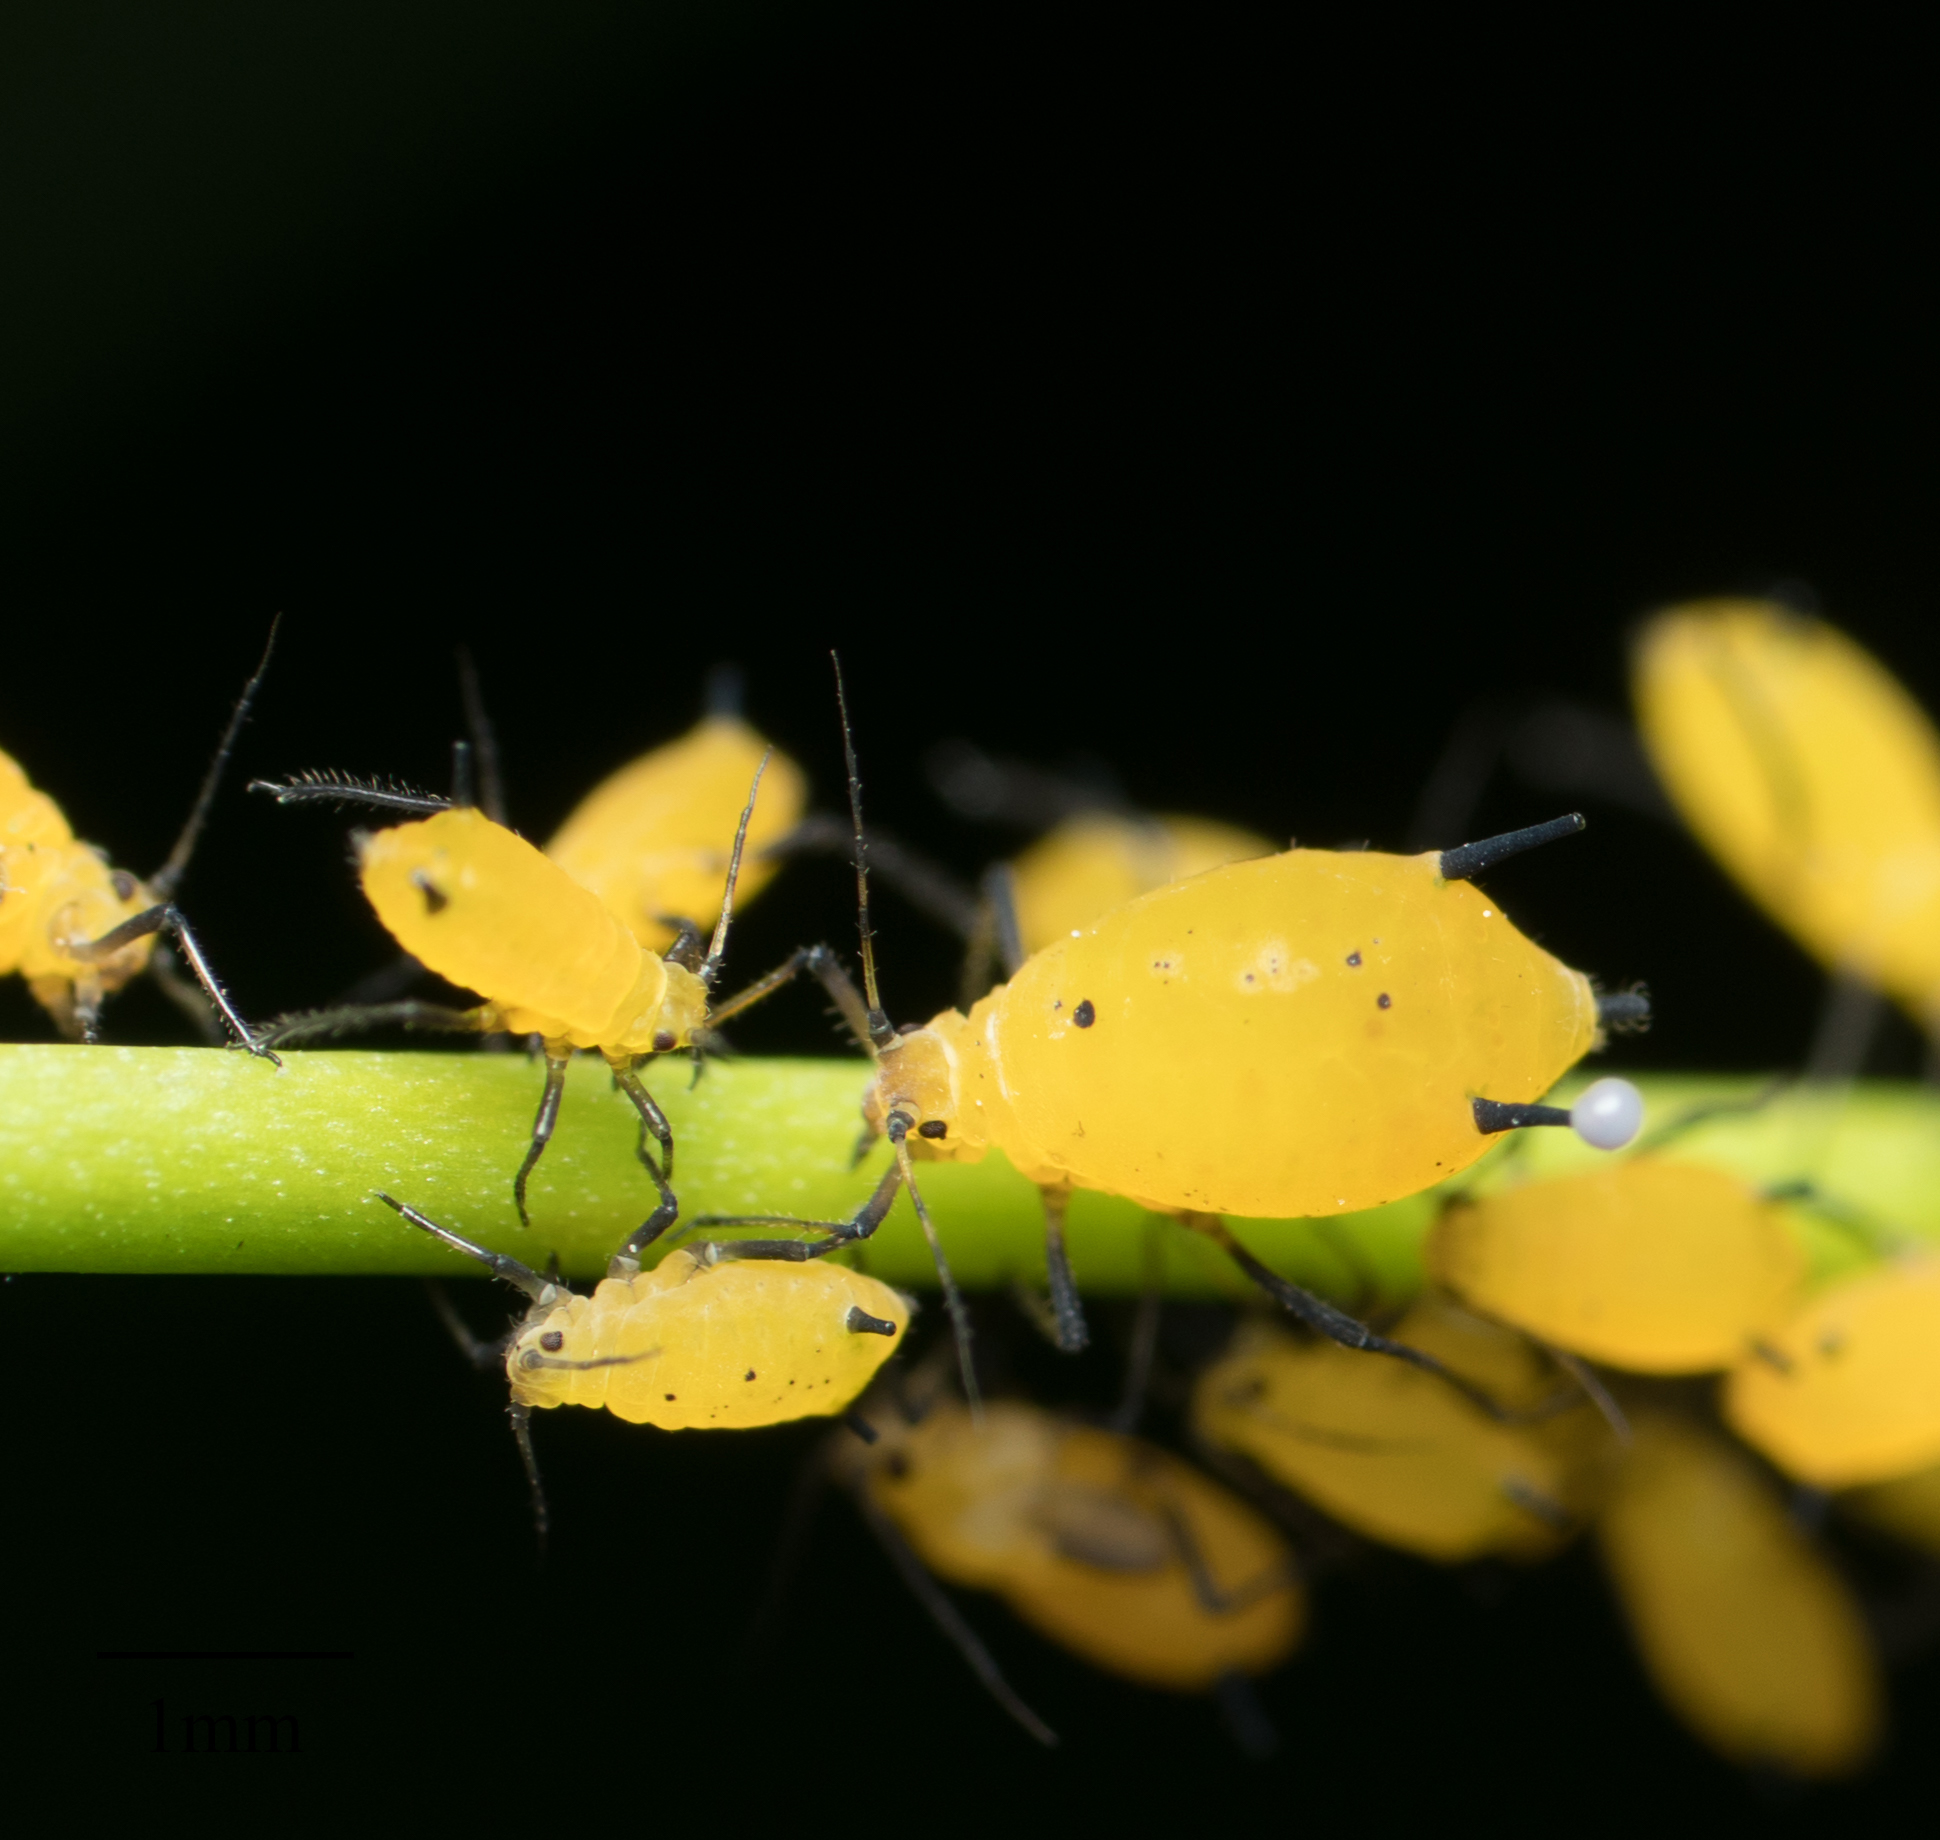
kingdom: Animalia
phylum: Arthropoda
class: Insecta
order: Hemiptera
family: Aphididae
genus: Aphis
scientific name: Aphis nerii
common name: Oleander aphid
